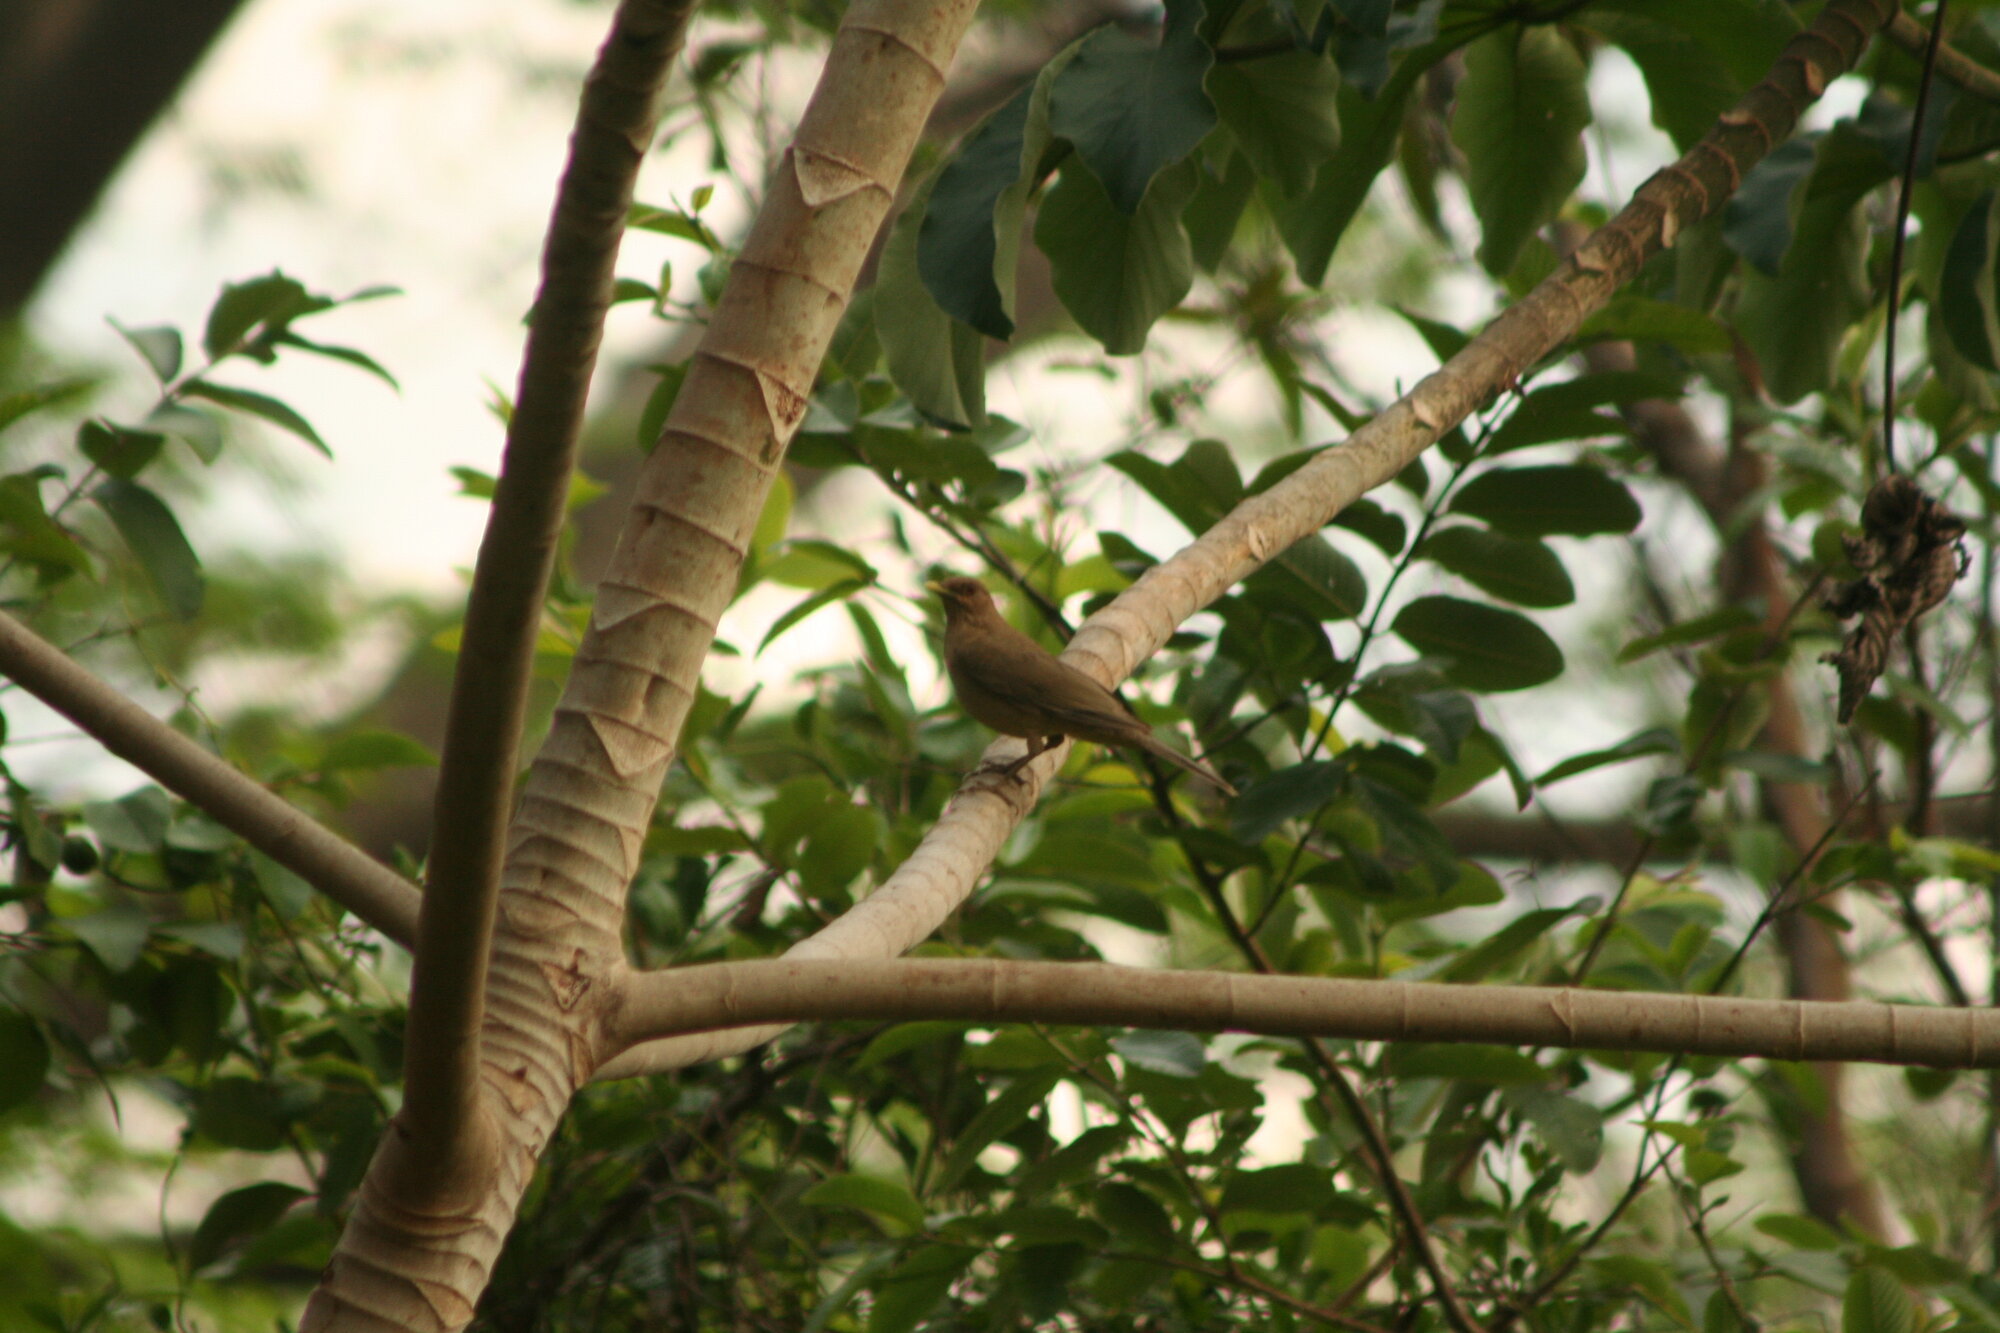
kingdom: Animalia
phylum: Chordata
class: Aves
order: Passeriformes
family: Turdidae
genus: Turdus
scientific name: Turdus grayi
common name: Clay-colored thrush
